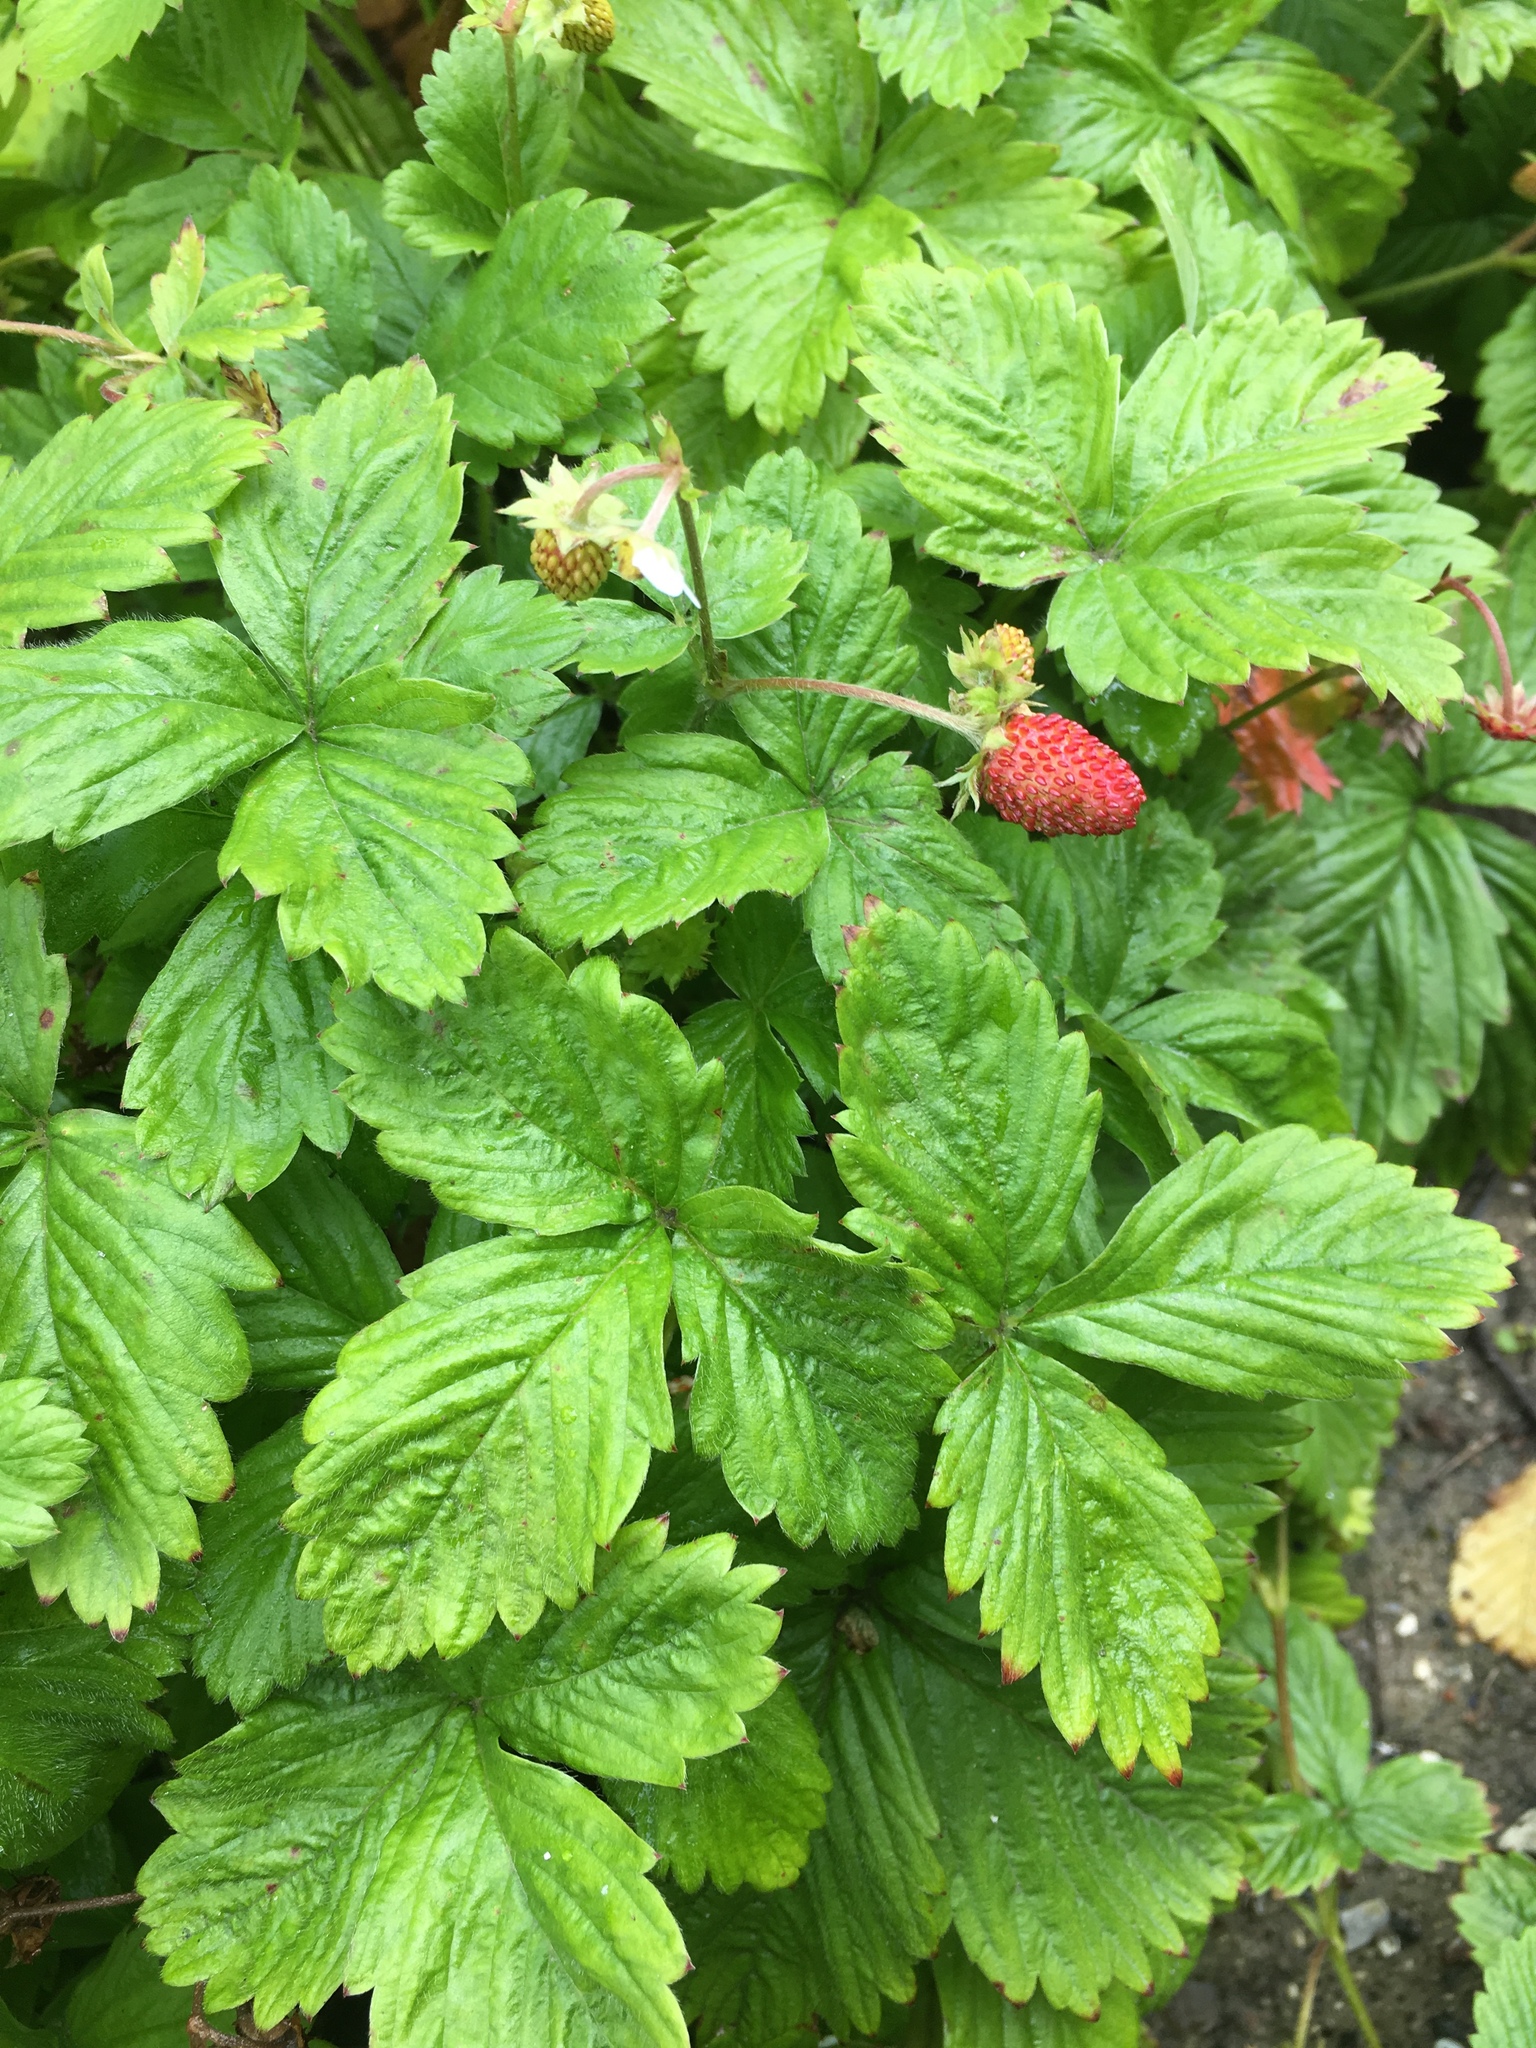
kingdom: Plantae
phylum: Tracheophyta
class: Magnoliopsida
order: Rosales
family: Rosaceae
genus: Fragaria
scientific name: Fragaria vesca
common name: Wild strawberry
